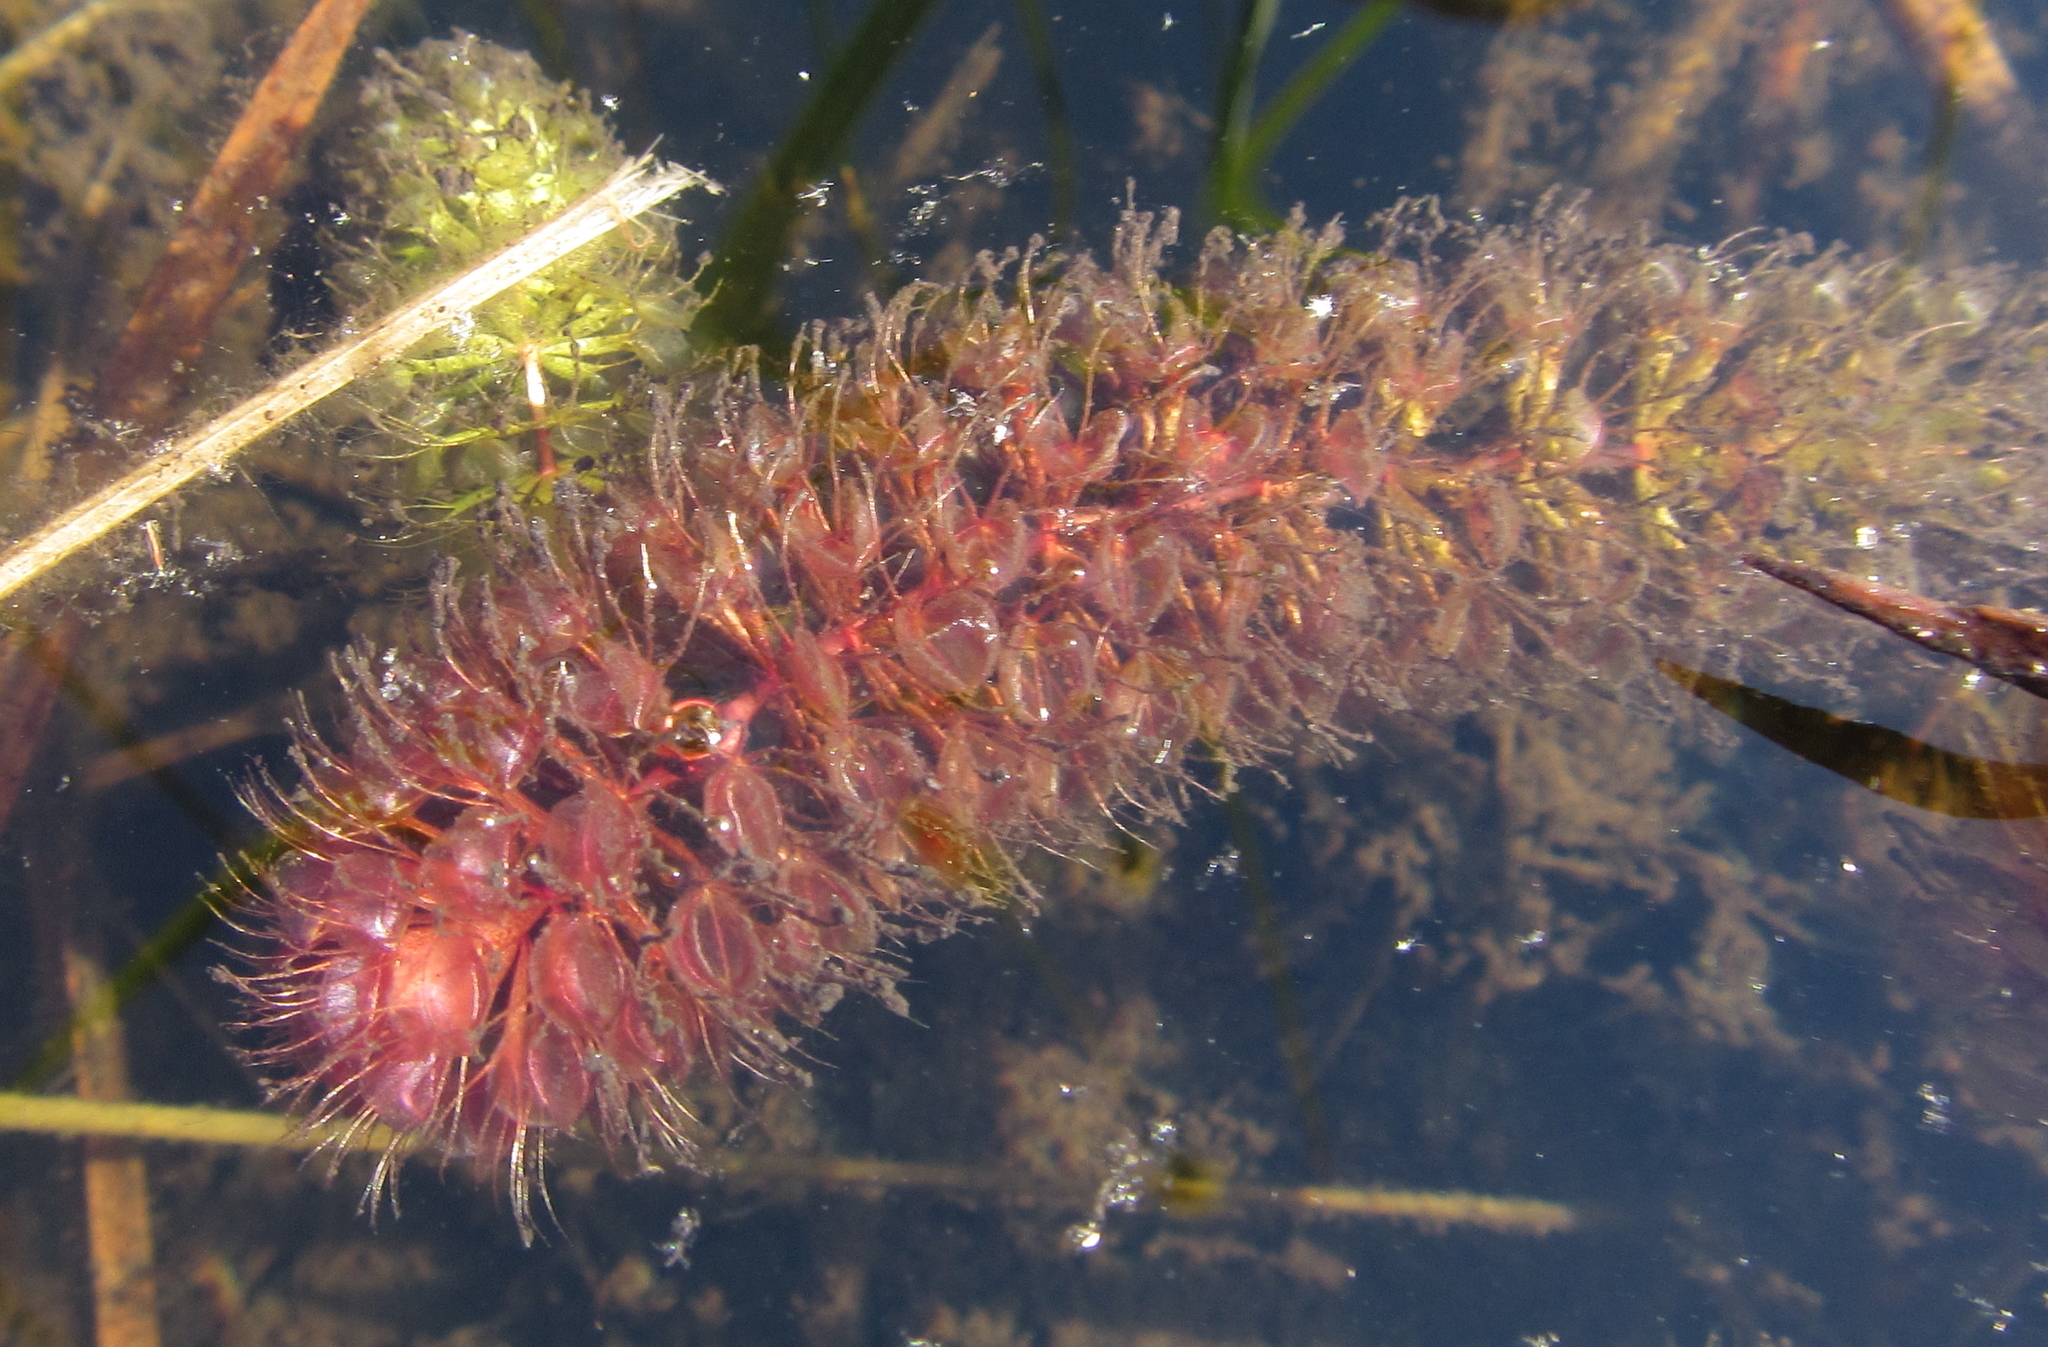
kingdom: Plantae
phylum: Tracheophyta
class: Magnoliopsida
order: Caryophyllales
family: Droseraceae
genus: Aldrovanda
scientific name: Aldrovanda vesiculosa
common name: Waterwheel plant
